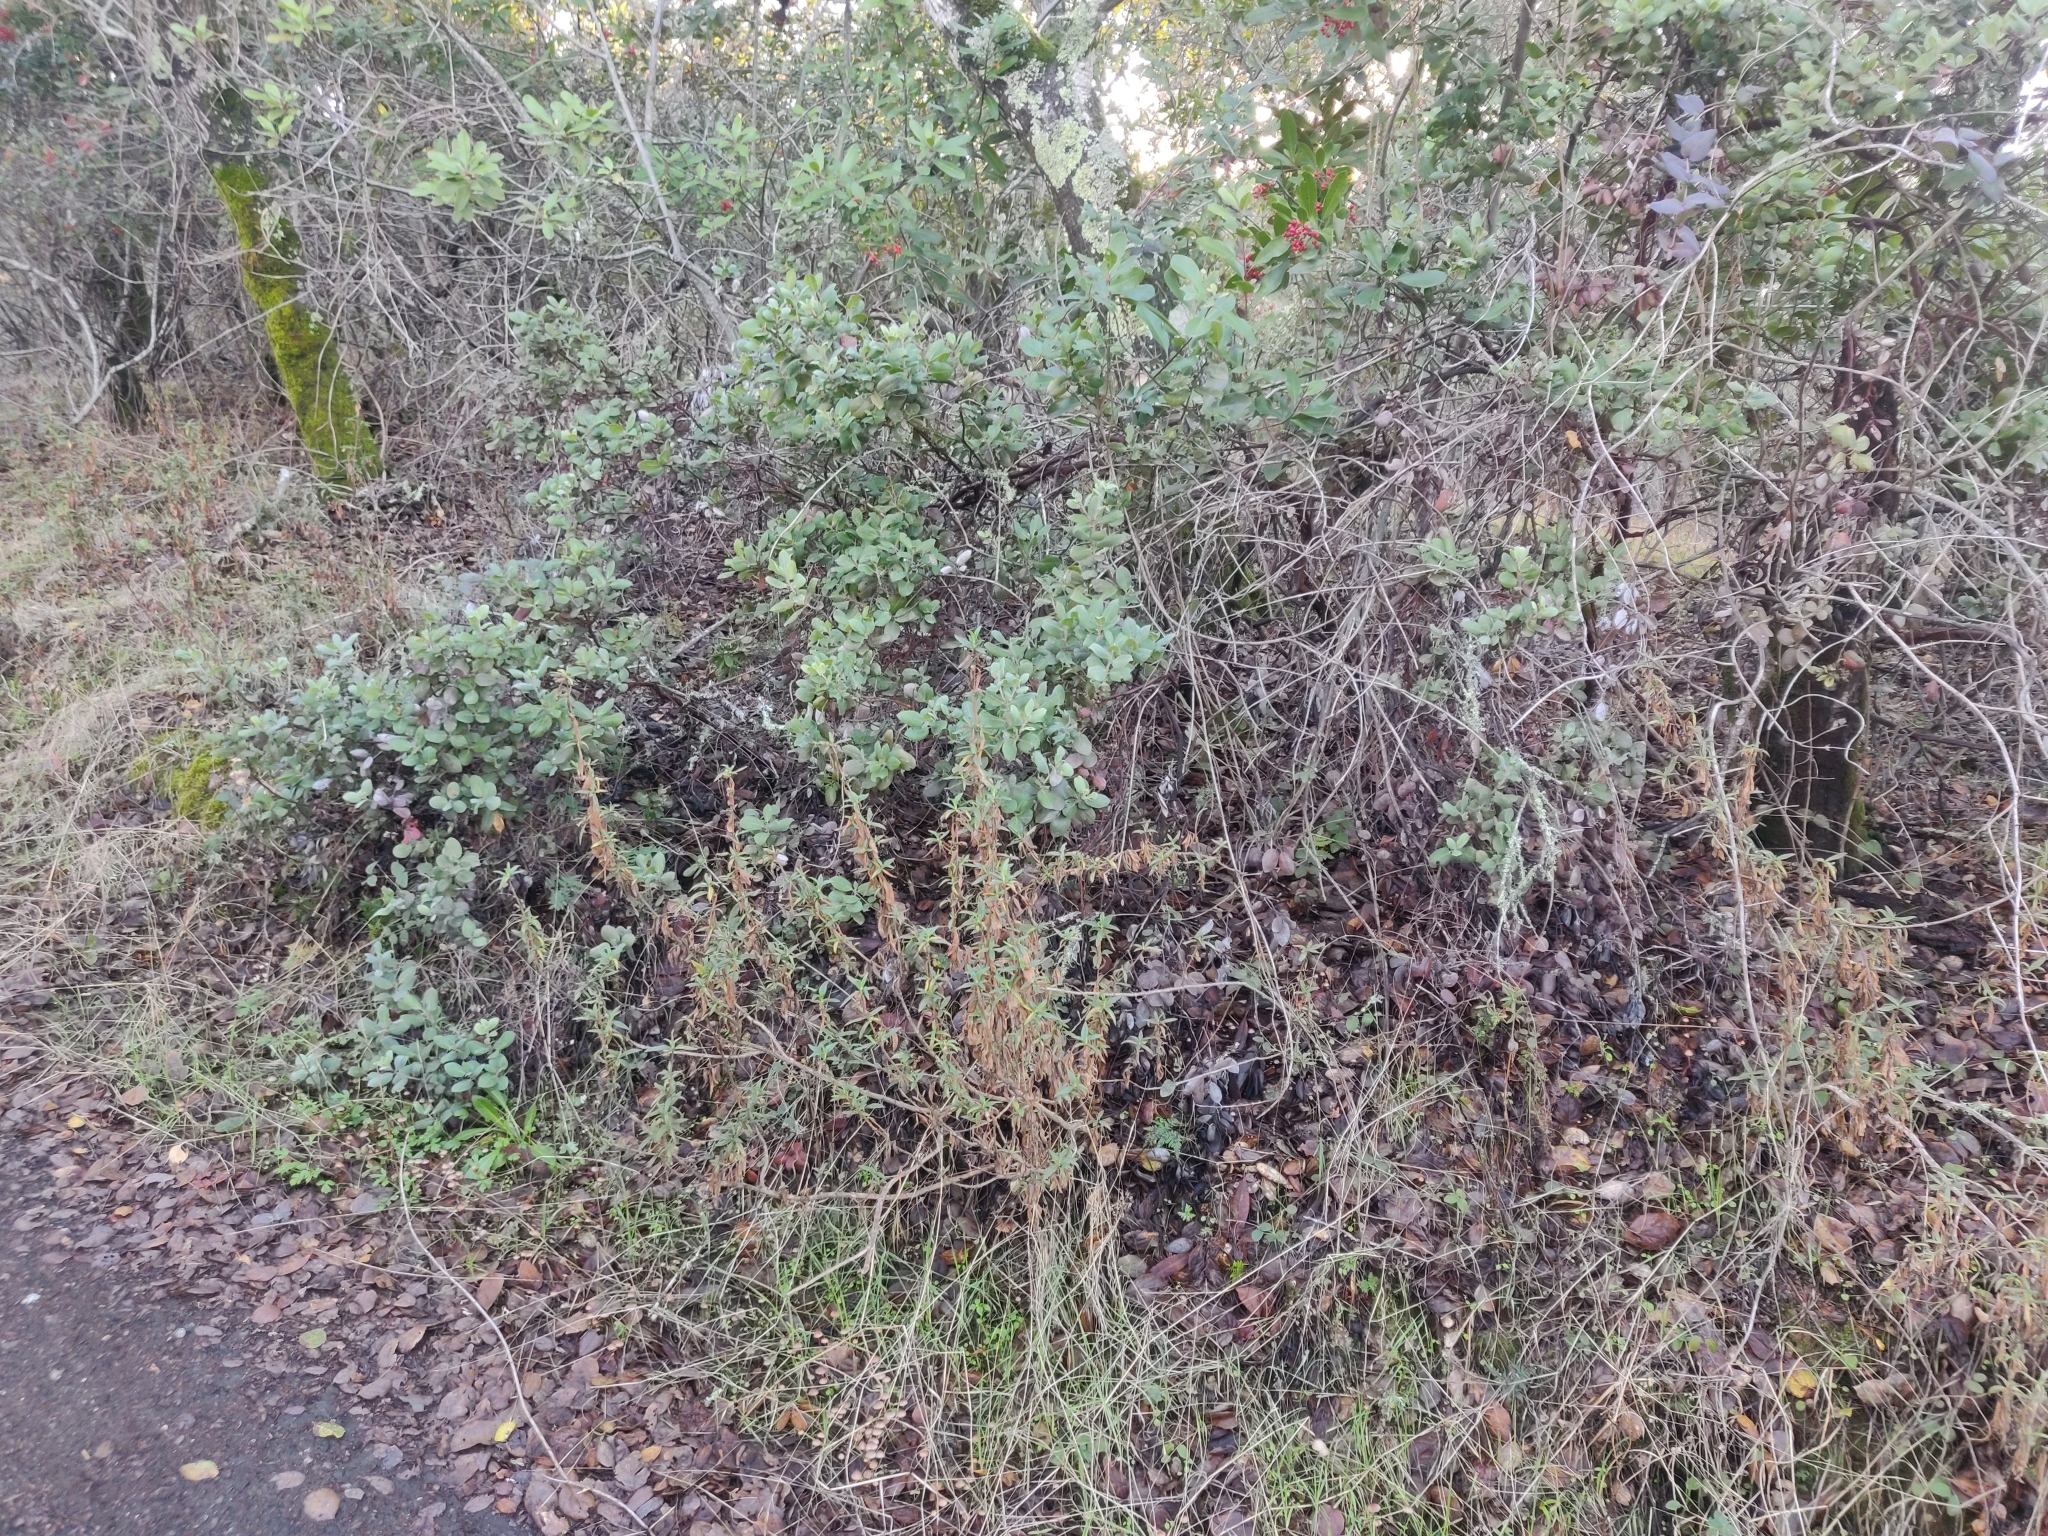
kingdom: Plantae
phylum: Tracheophyta
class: Magnoliopsida
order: Ericales
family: Ericaceae
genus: Arctostaphylos
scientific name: Arctostaphylos crustacea
